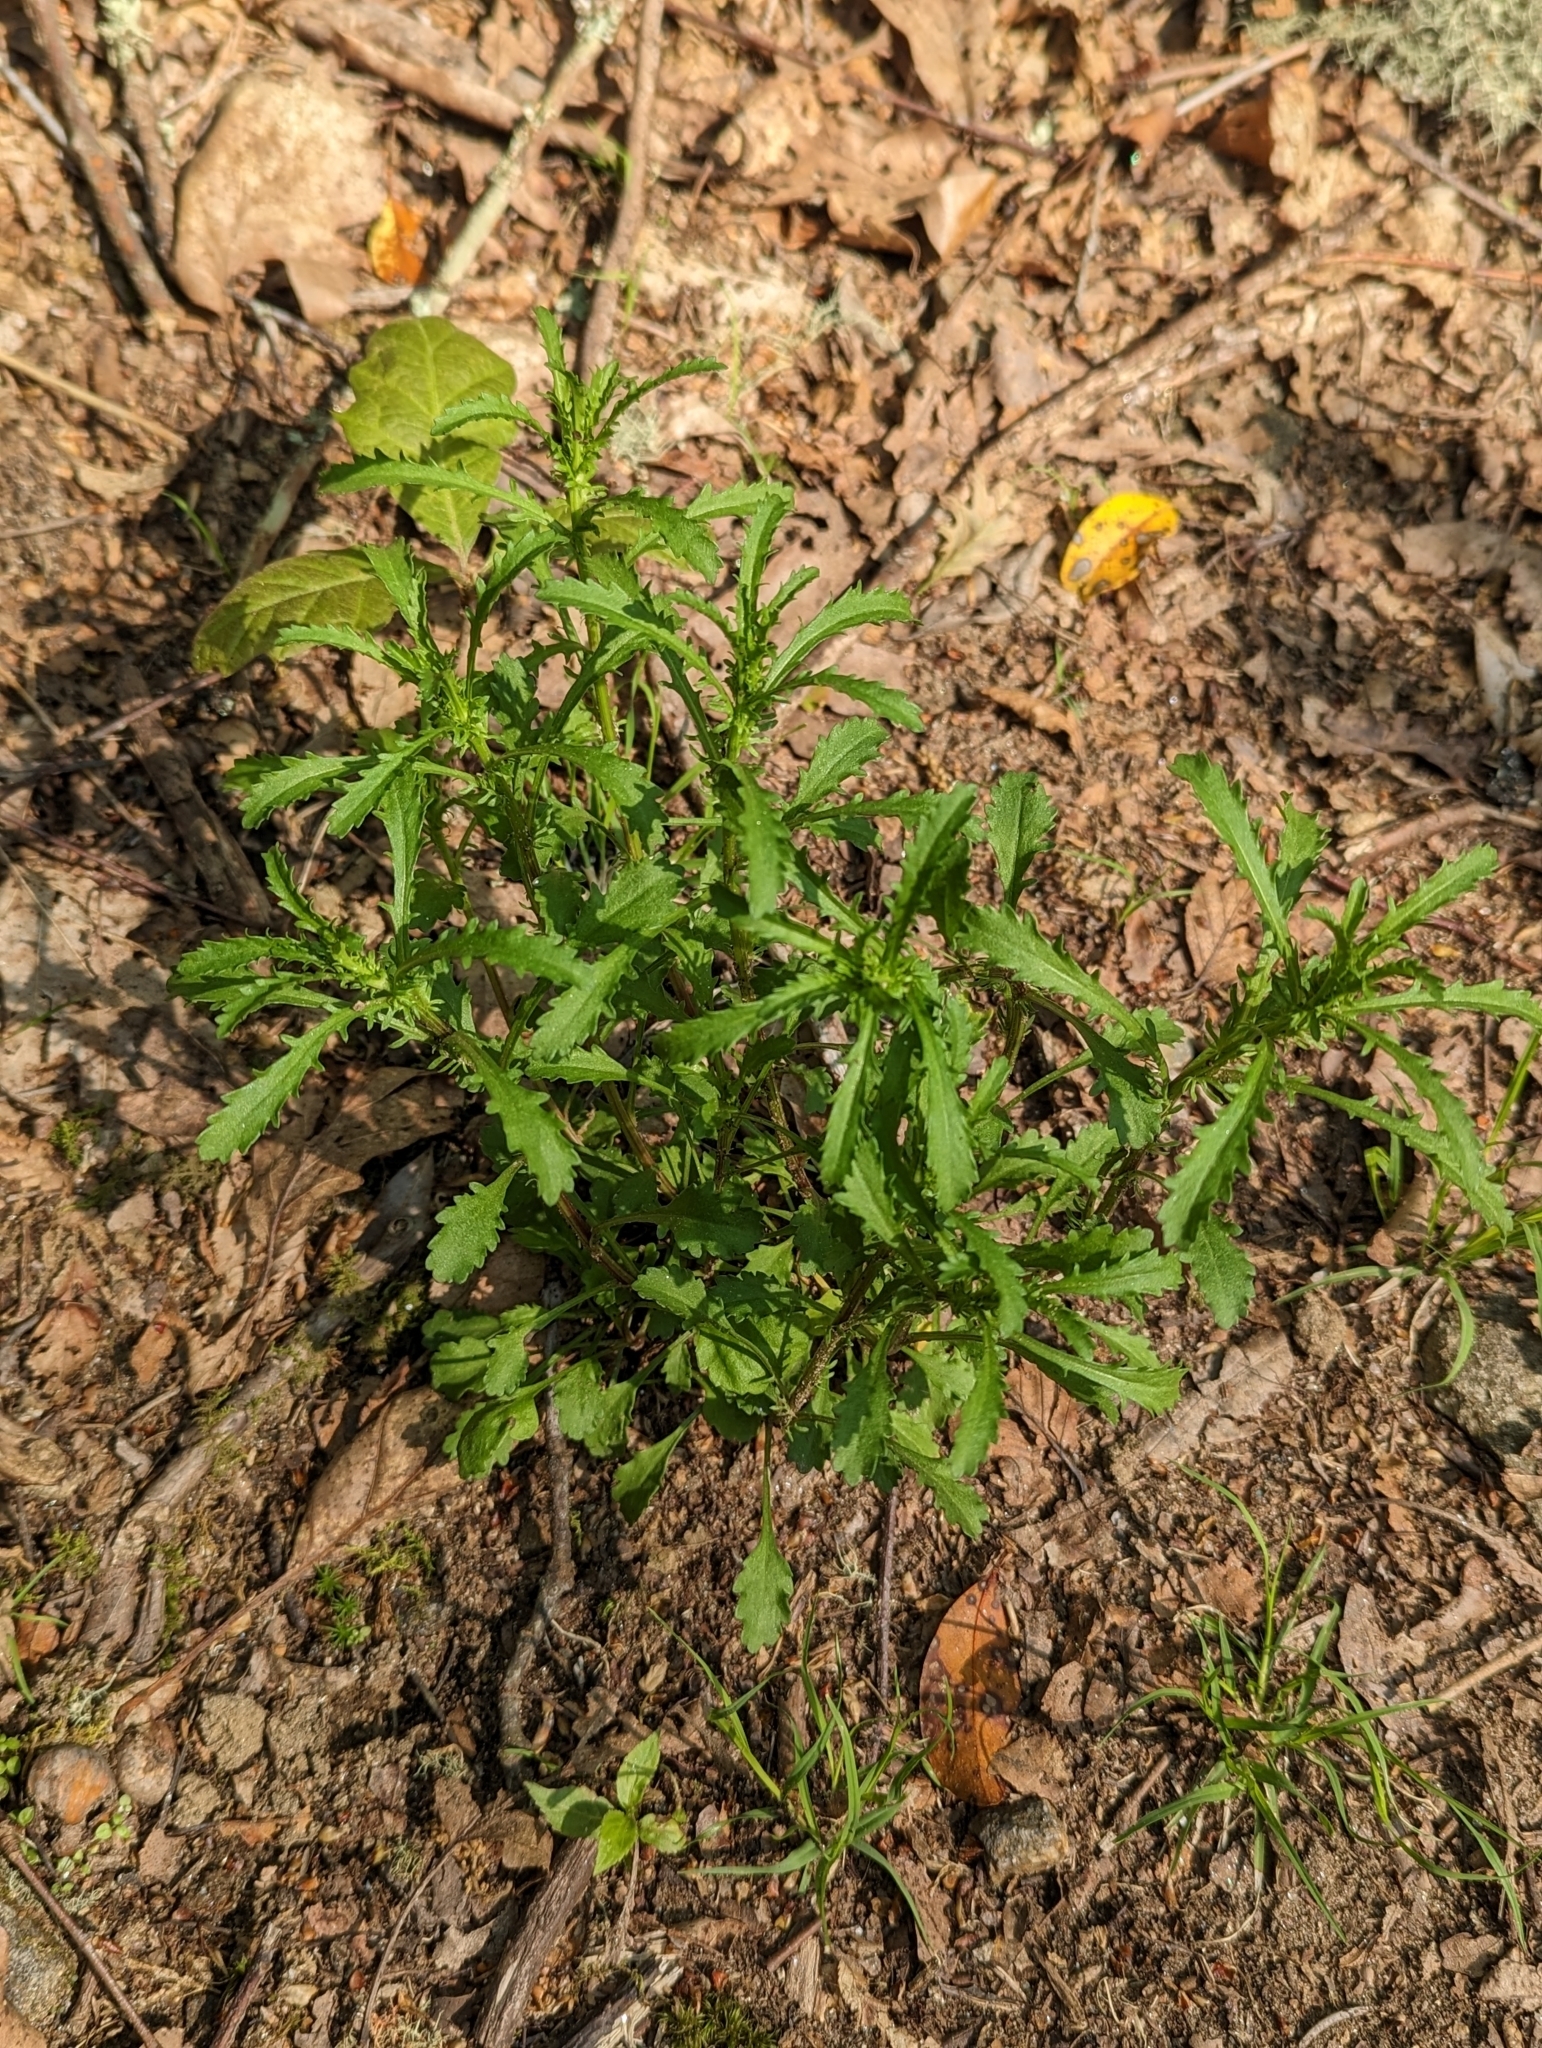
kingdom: Plantae
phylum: Tracheophyta
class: Magnoliopsida
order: Asterales
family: Asteraceae
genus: Leucanthemum
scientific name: Leucanthemum vulgare
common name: Oxeye daisy
